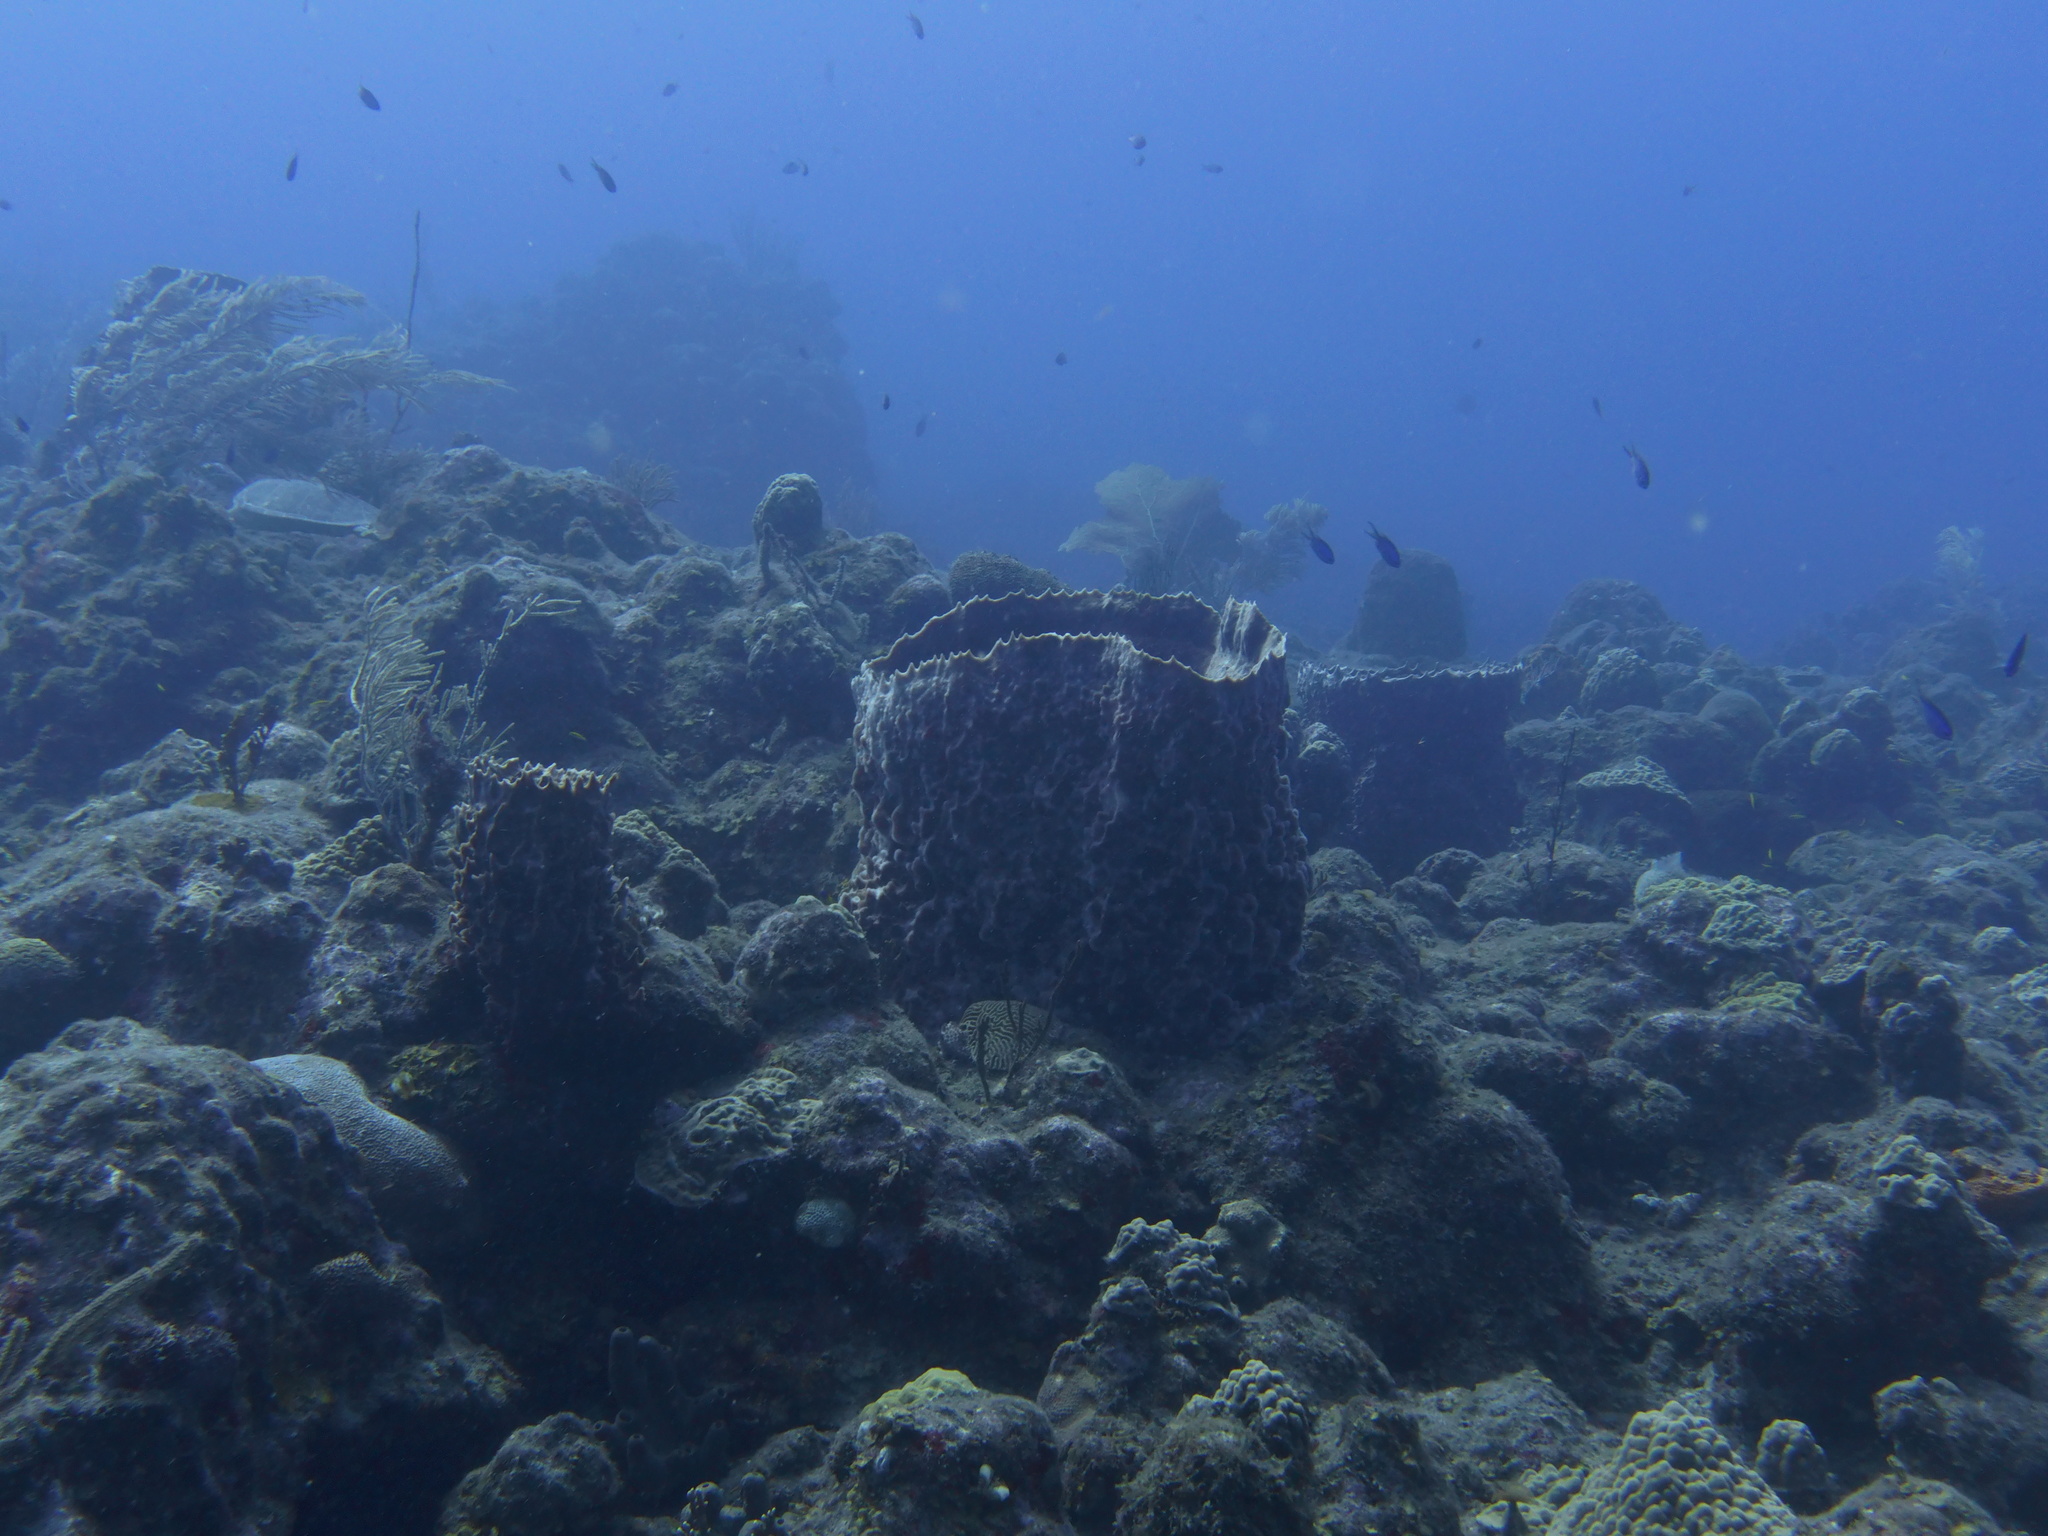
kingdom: Animalia
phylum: Porifera
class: Demospongiae
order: Haplosclerida
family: Petrosiidae
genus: Xestospongia
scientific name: Xestospongia muta
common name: Giant barrel sponge
